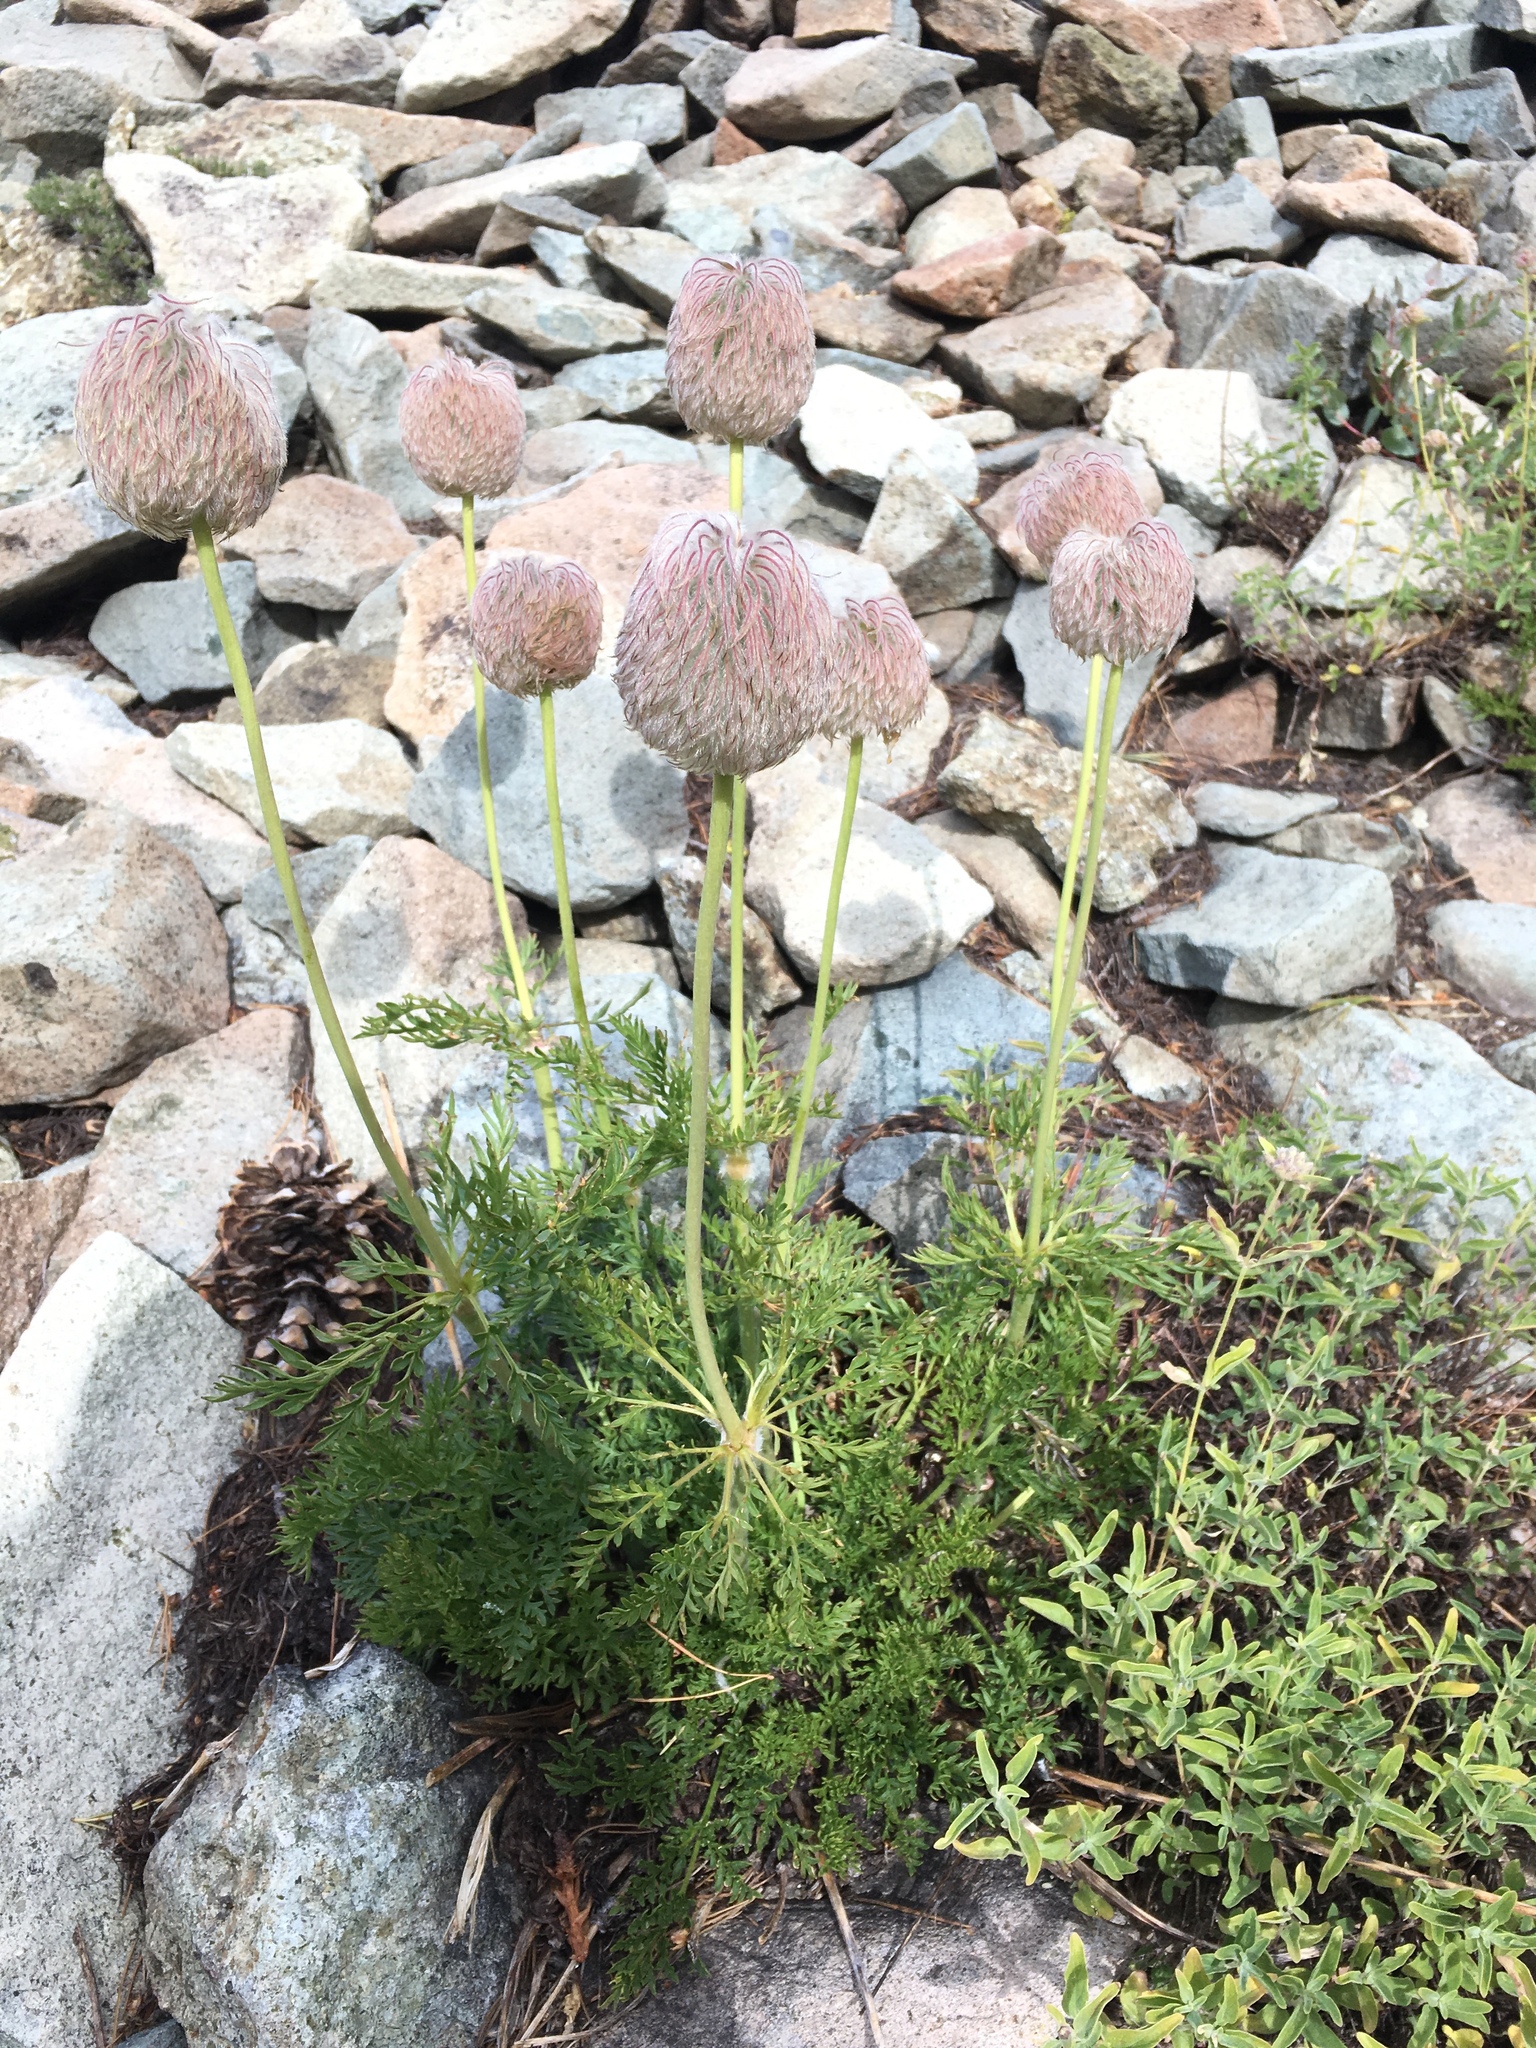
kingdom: Plantae
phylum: Tracheophyta
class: Magnoliopsida
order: Ranunculales
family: Ranunculaceae
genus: Pulsatilla
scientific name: Pulsatilla occidentalis
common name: Mountain pasqueflower
